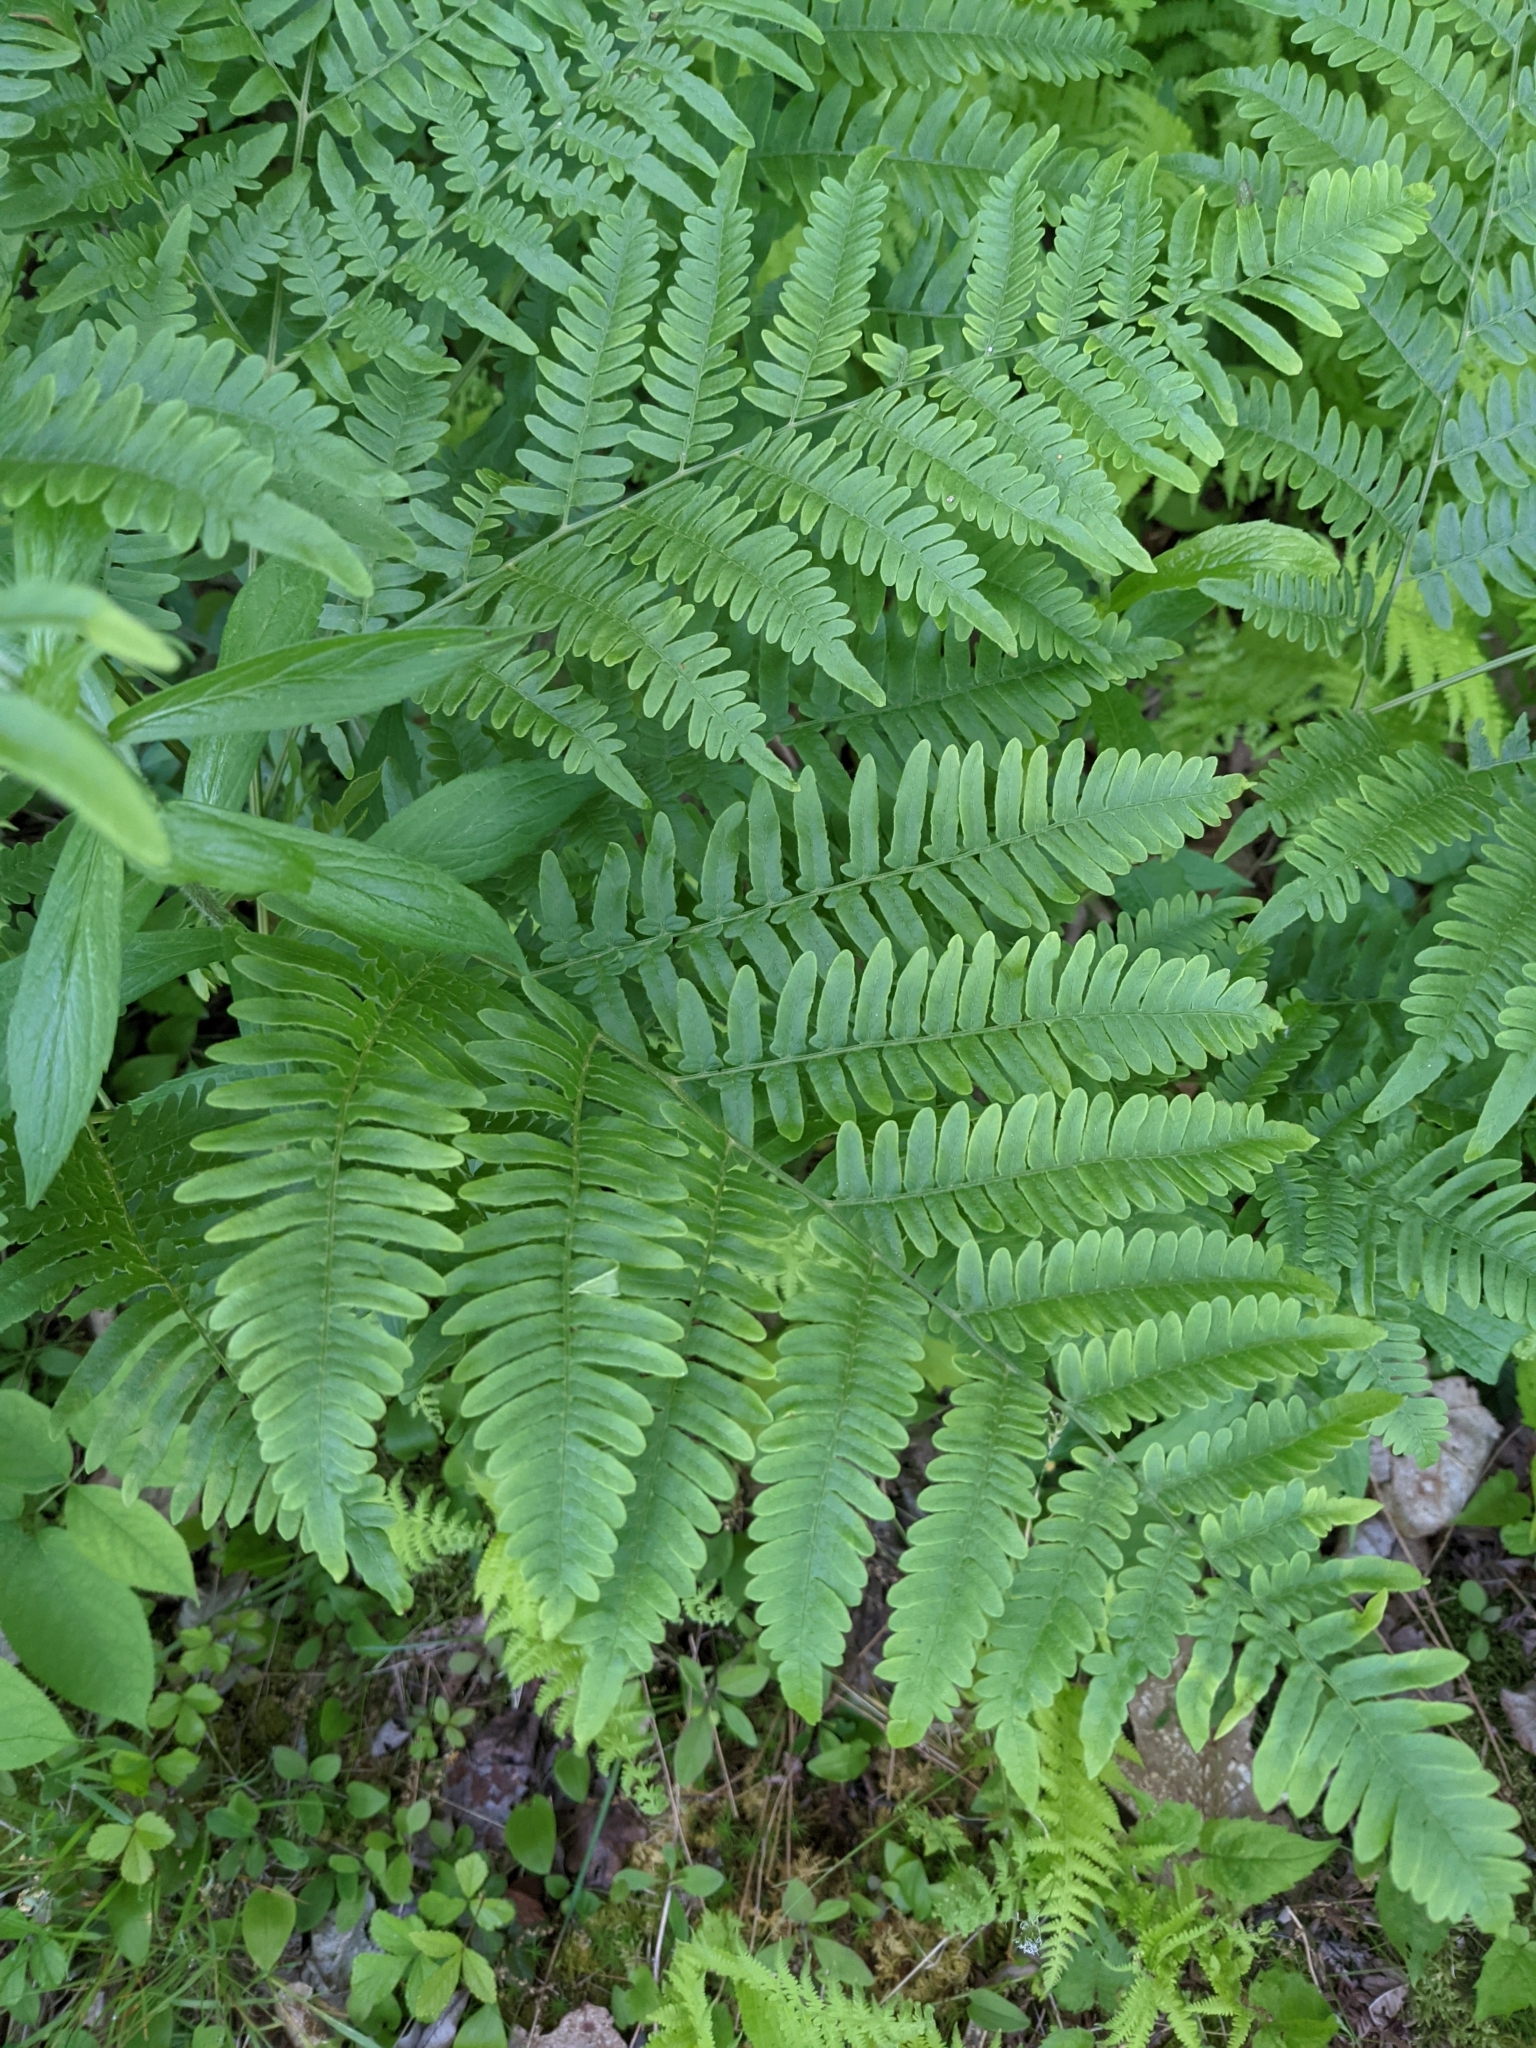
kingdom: Plantae
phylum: Tracheophyta
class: Polypodiopsida
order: Polypodiales
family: Dennstaedtiaceae
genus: Pteridium
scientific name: Pteridium aquilinum
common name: Bracken
